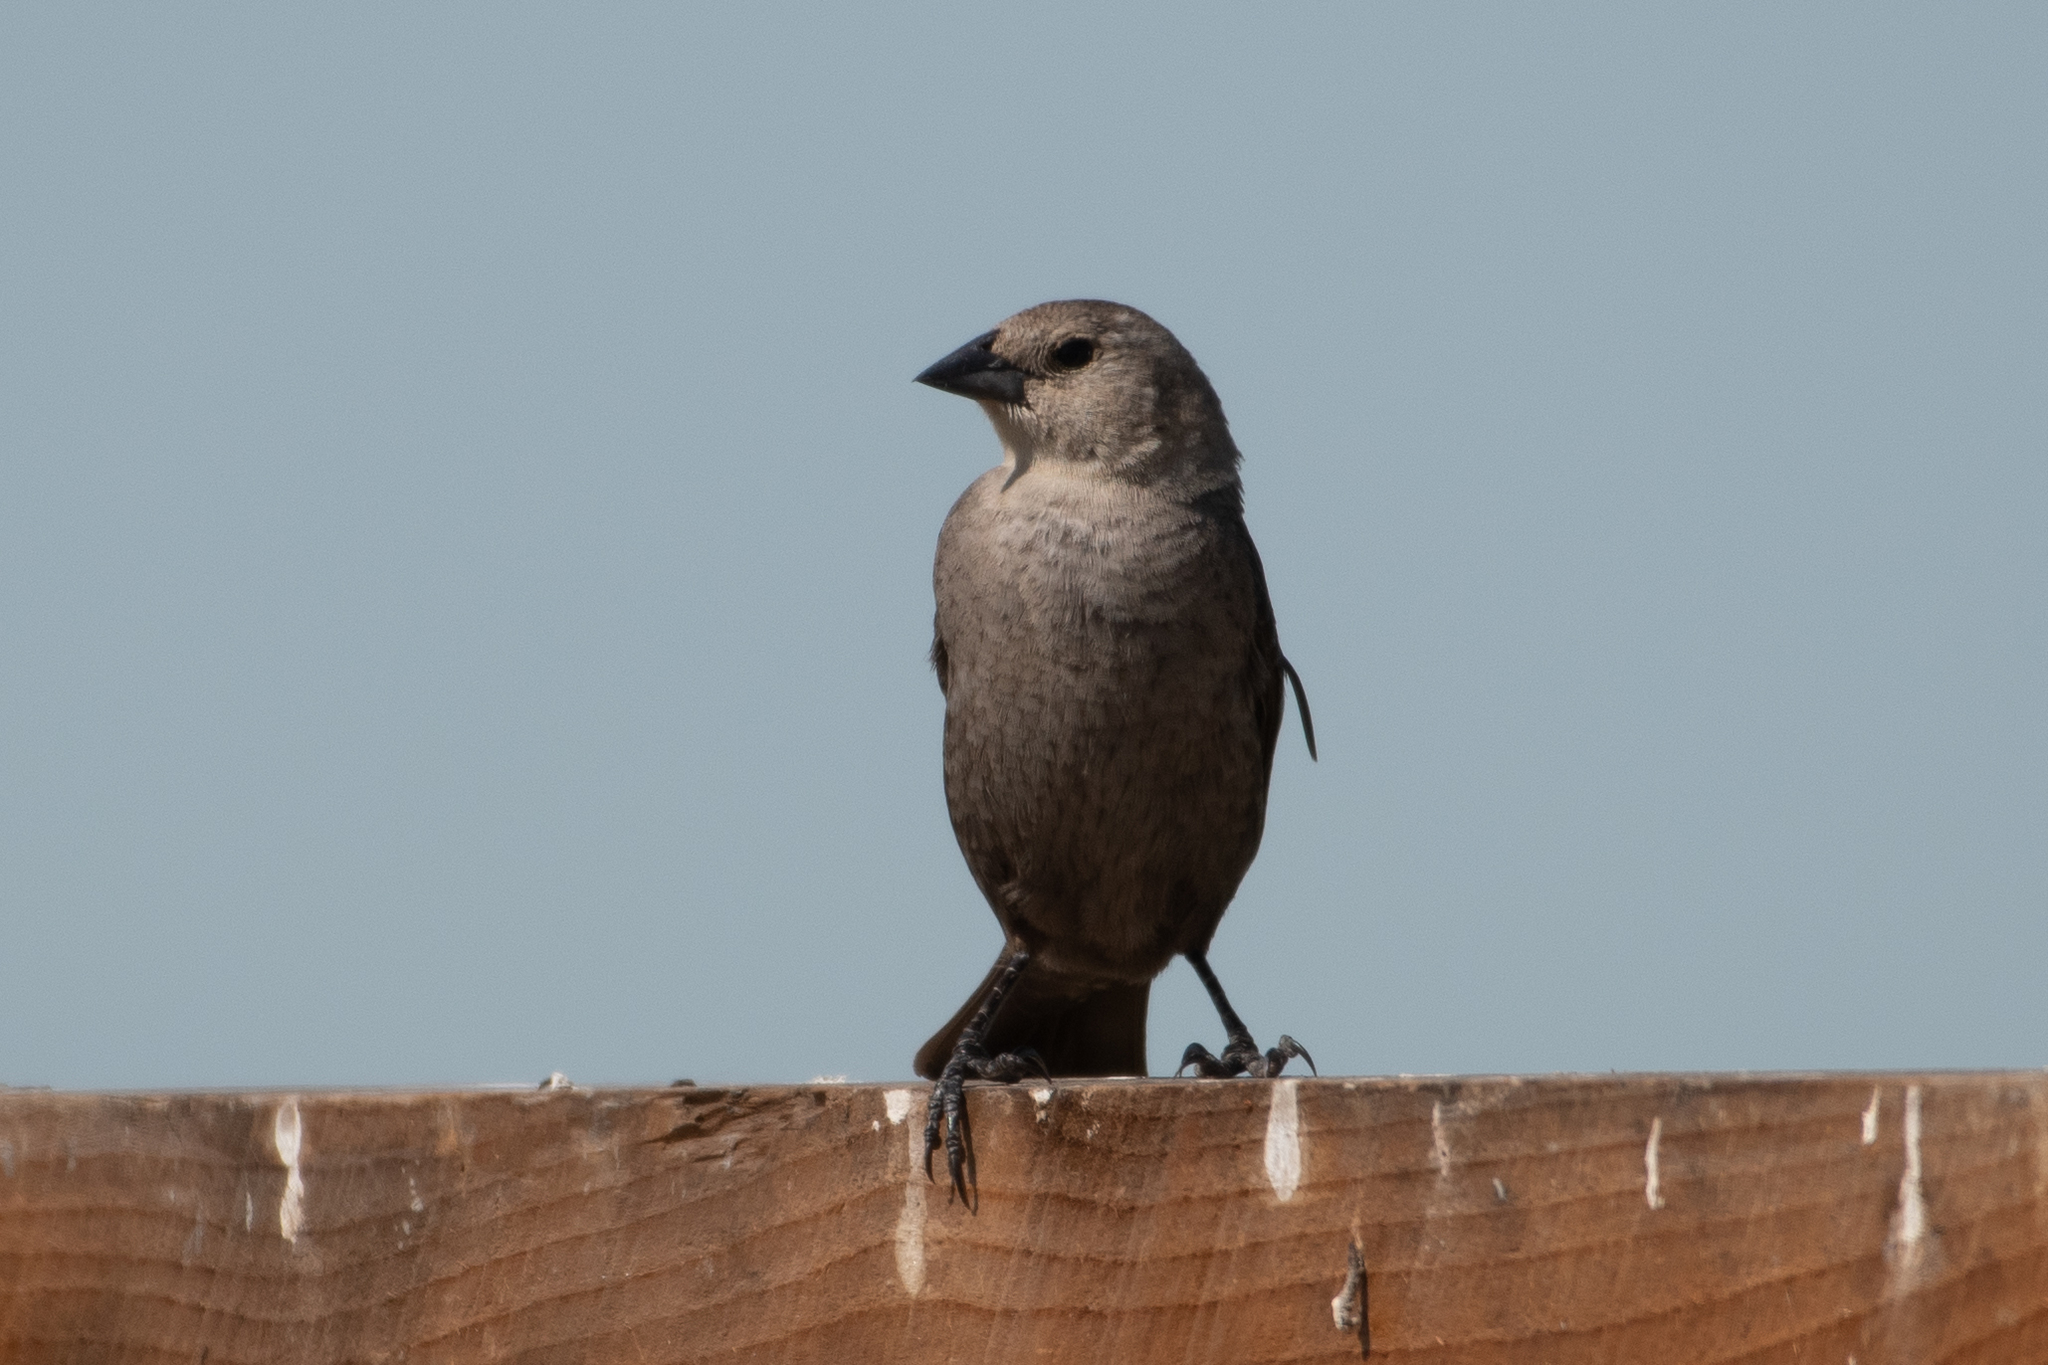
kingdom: Animalia
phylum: Chordata
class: Aves
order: Passeriformes
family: Icteridae
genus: Molothrus
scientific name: Molothrus ater
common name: Brown-headed cowbird
